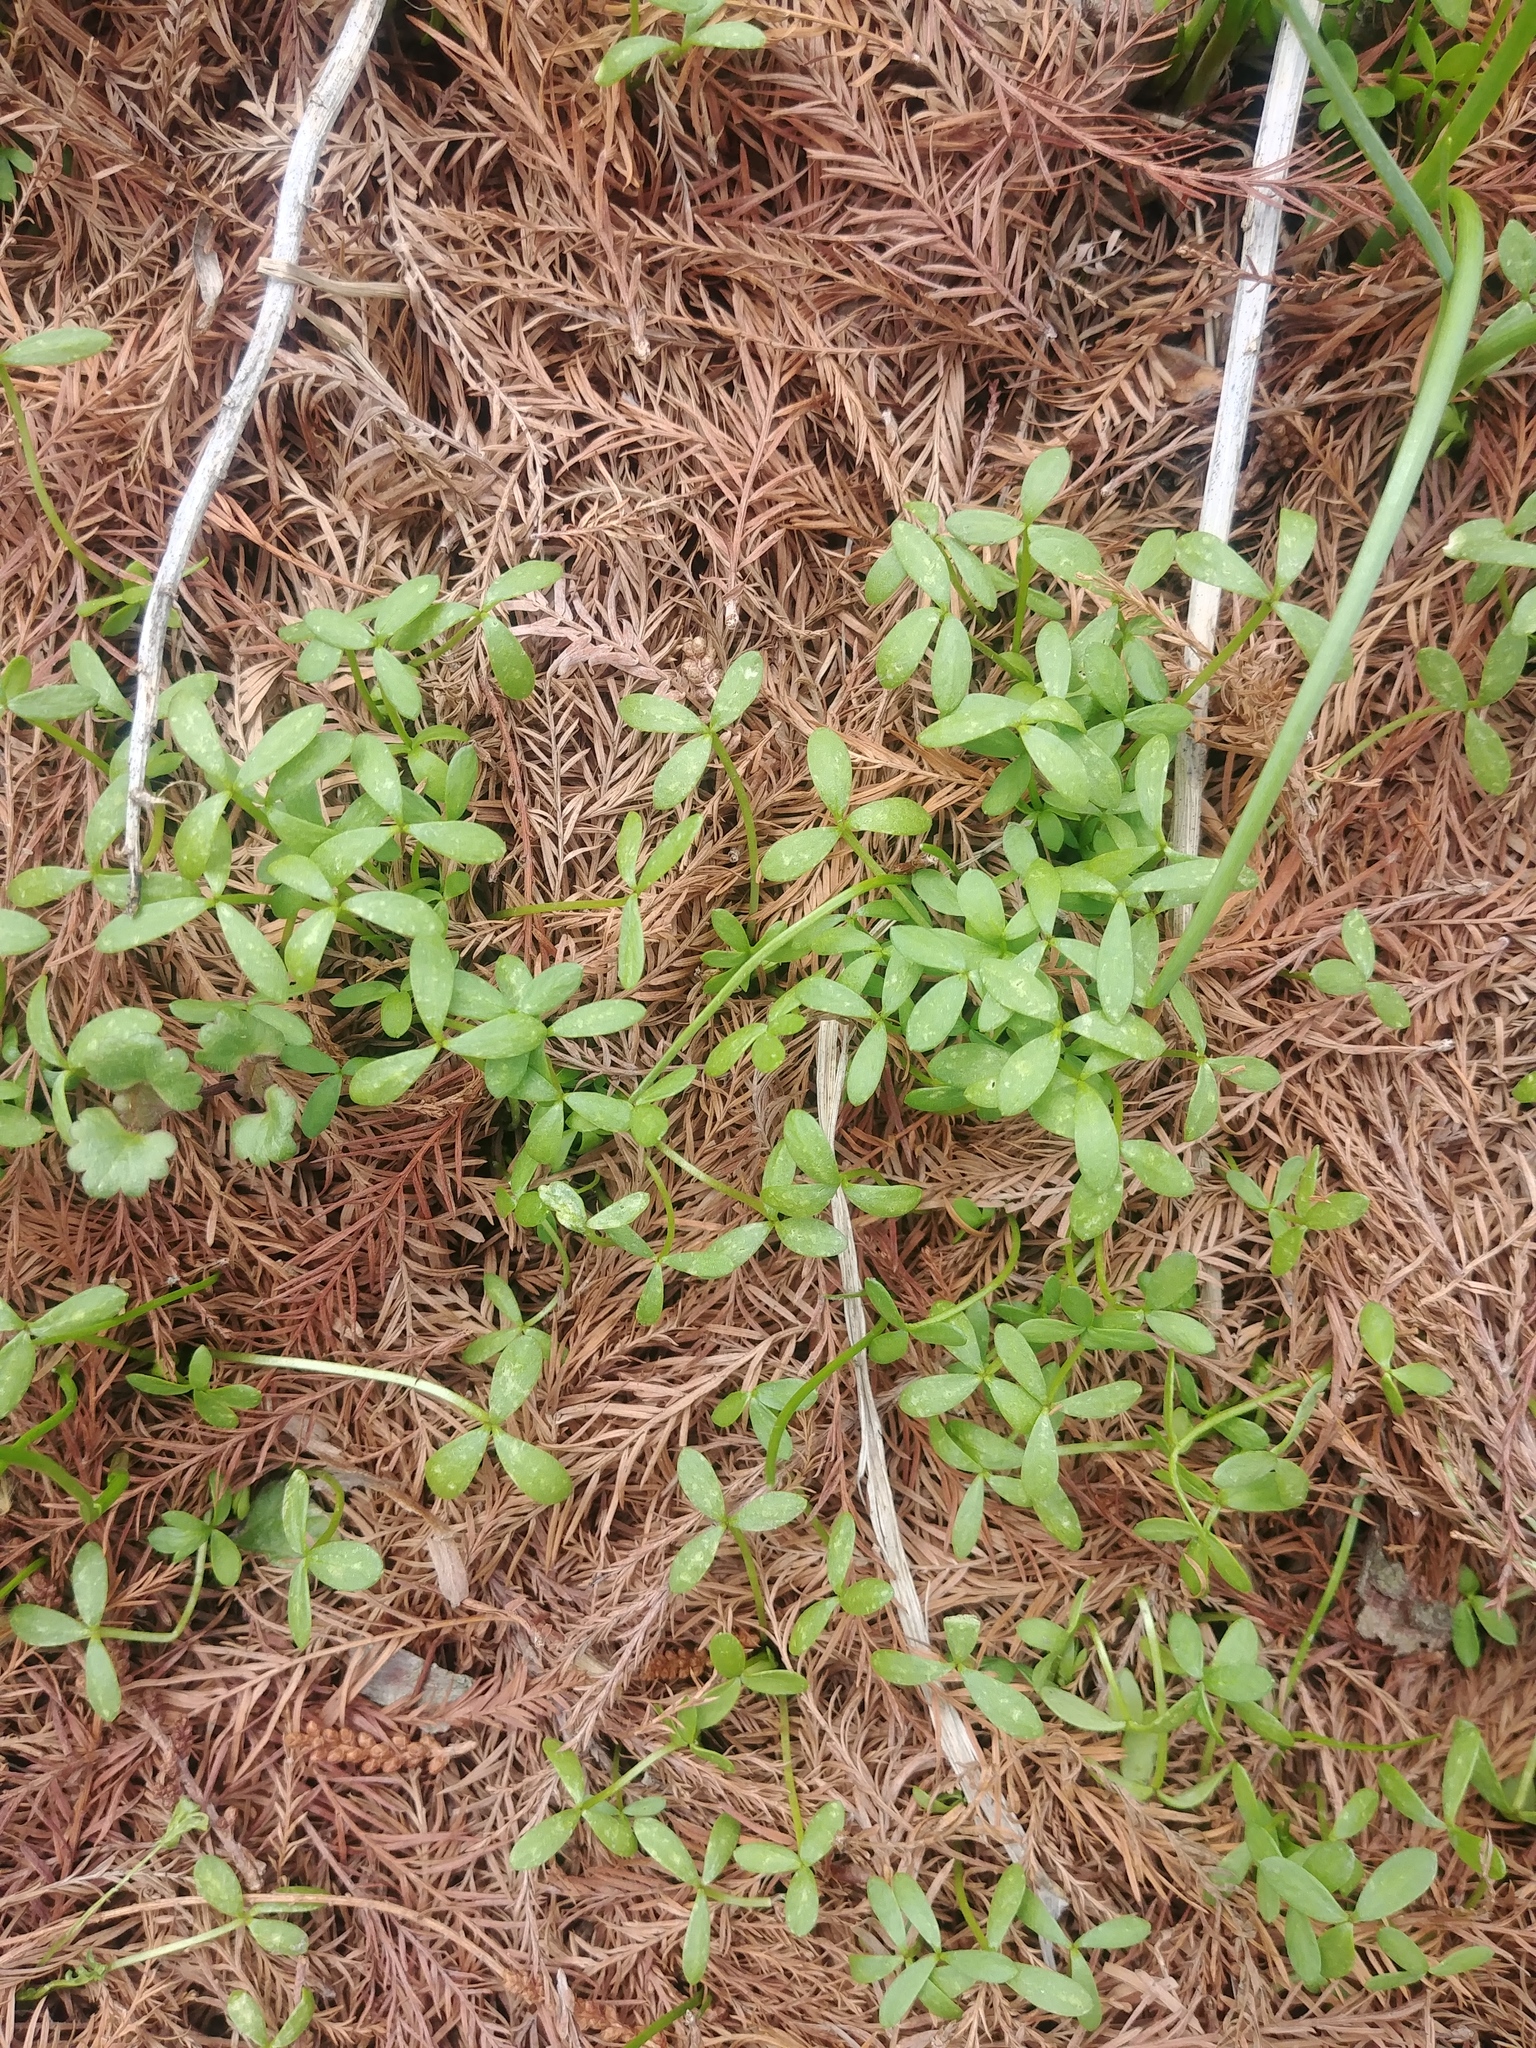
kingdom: Plantae
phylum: Tracheophyta
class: Magnoliopsida
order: Brassicales
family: Limnanthaceae
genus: Floerkea
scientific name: Floerkea proserpinacoides
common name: False mermaid
